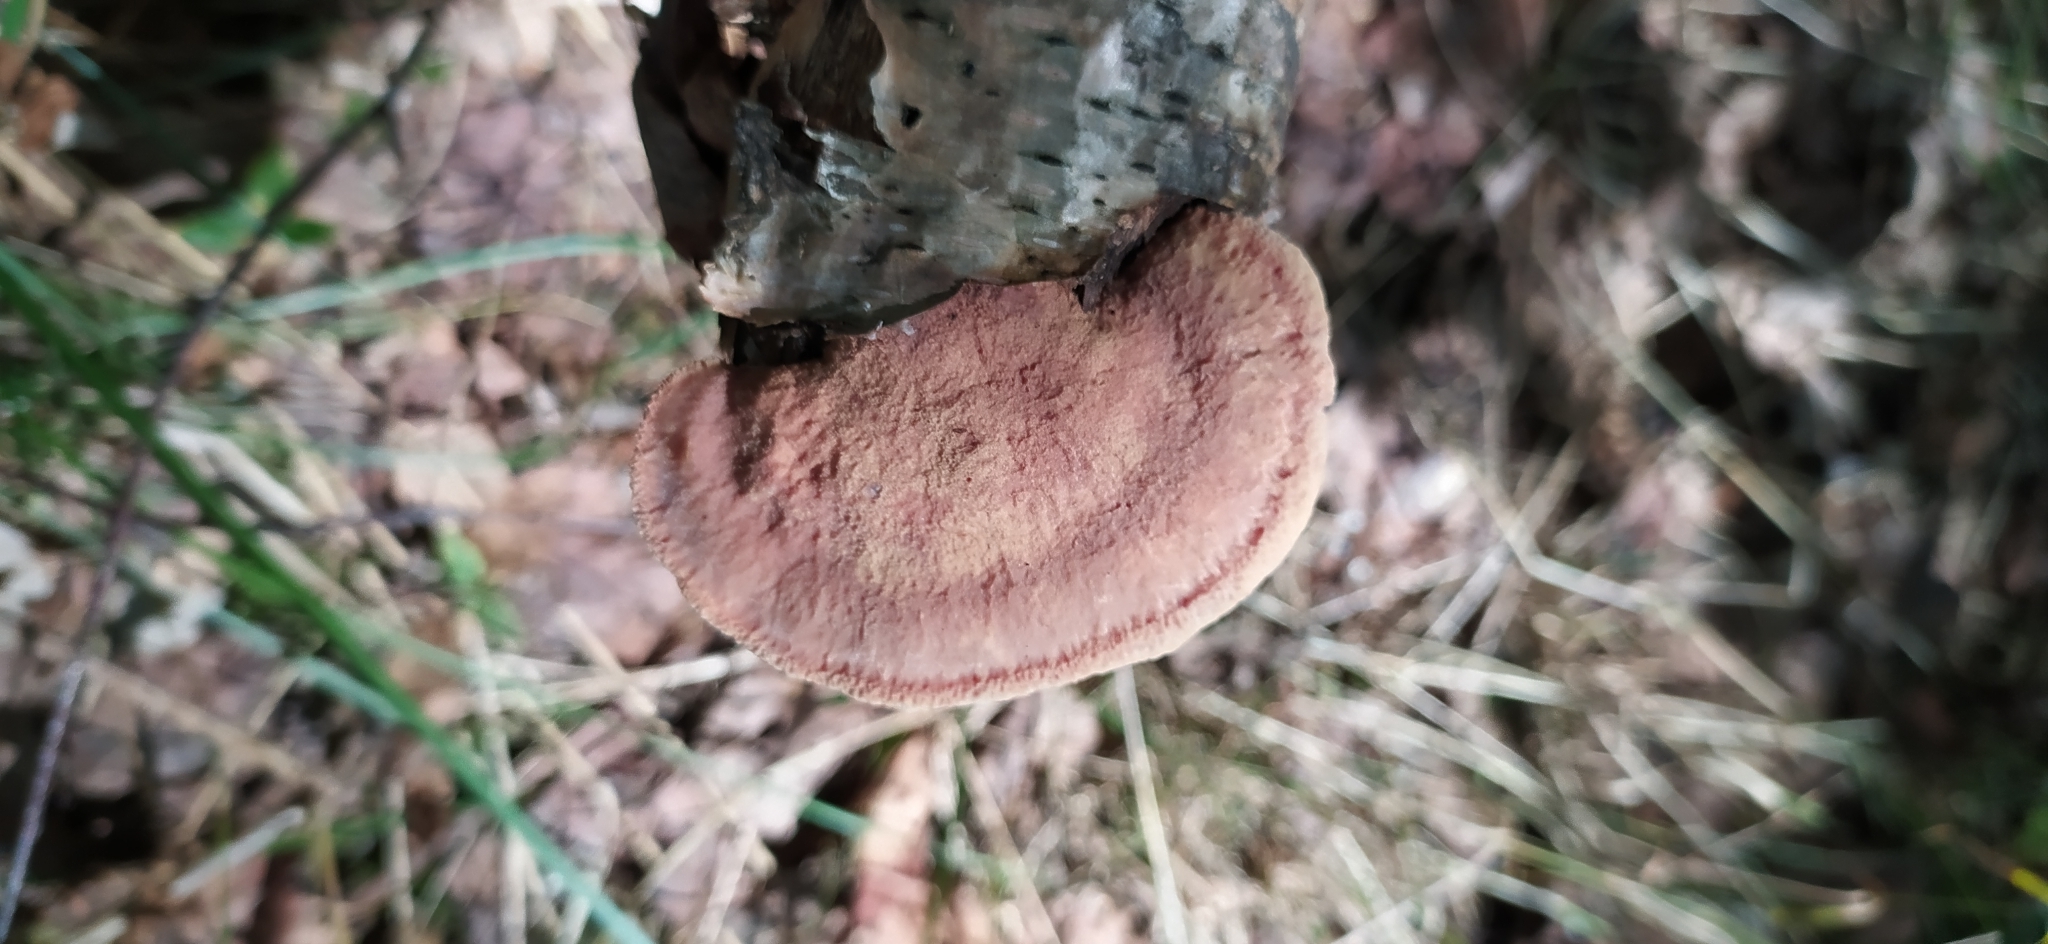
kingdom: Fungi
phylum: Basidiomycota
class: Agaricomycetes
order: Polyporales
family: Phanerochaetaceae
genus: Hapalopilus
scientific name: Hapalopilus rutilans
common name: Tender nesting polypore
